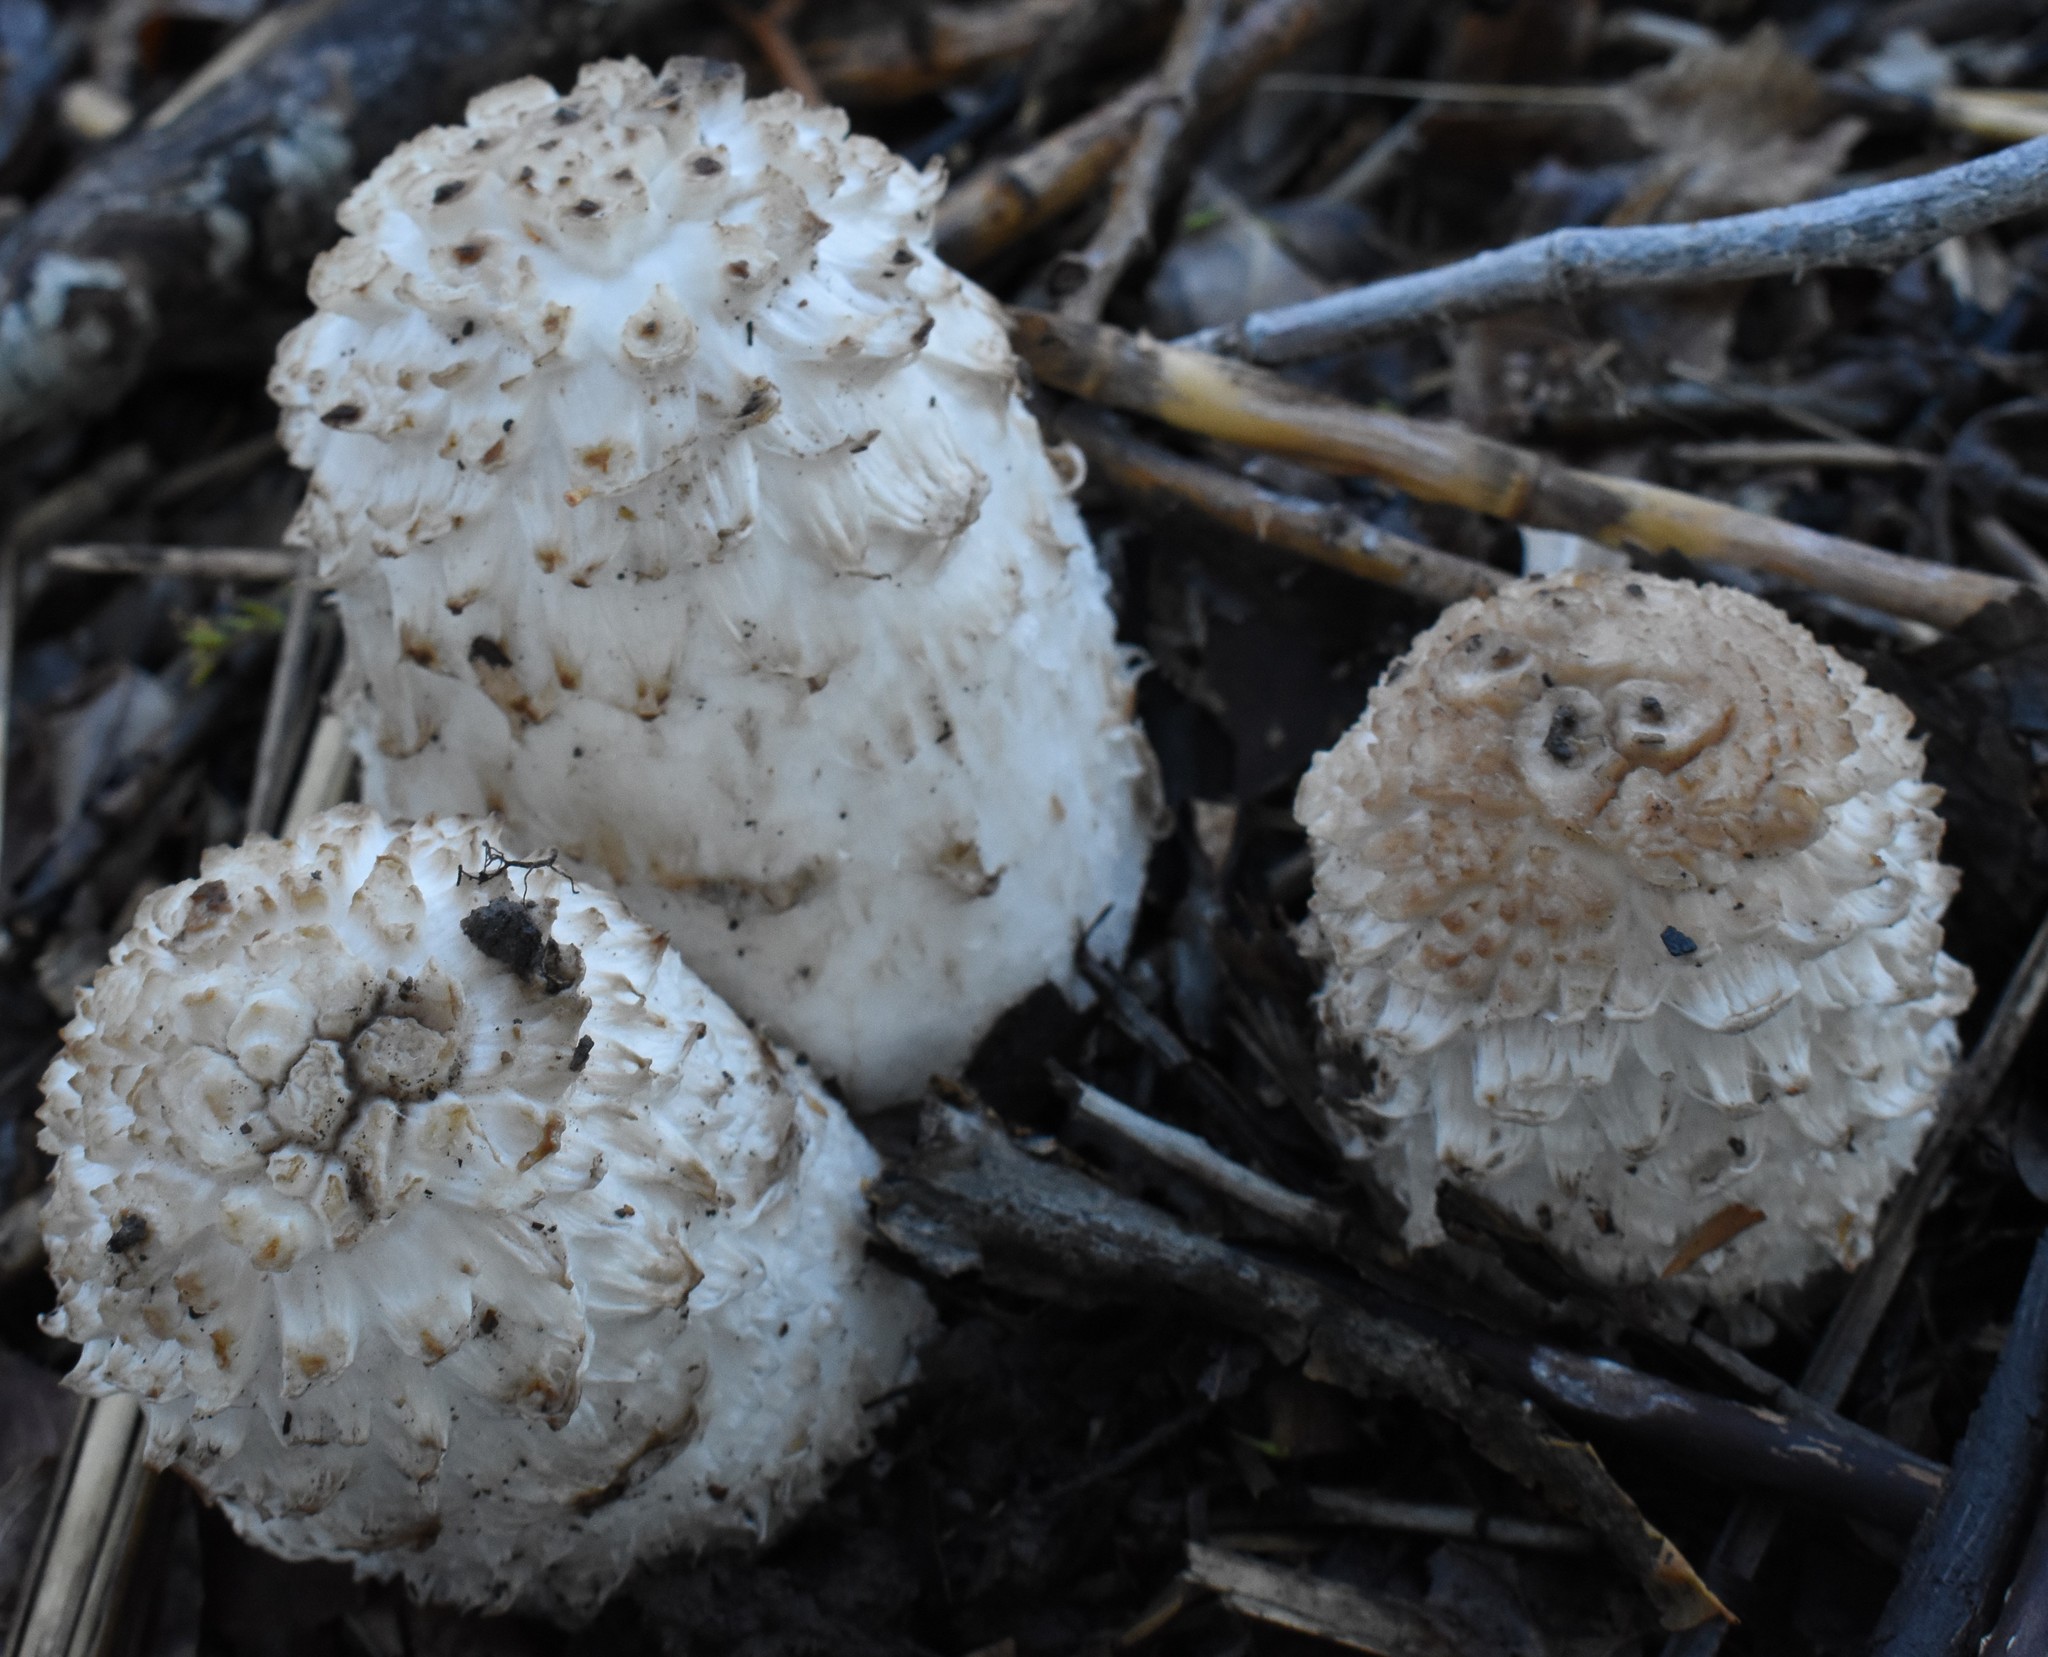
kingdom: Fungi
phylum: Basidiomycota
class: Agaricomycetes
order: Agaricales
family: Agaricaceae
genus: Coprinus
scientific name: Coprinus comatus
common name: Lawyer's wig
